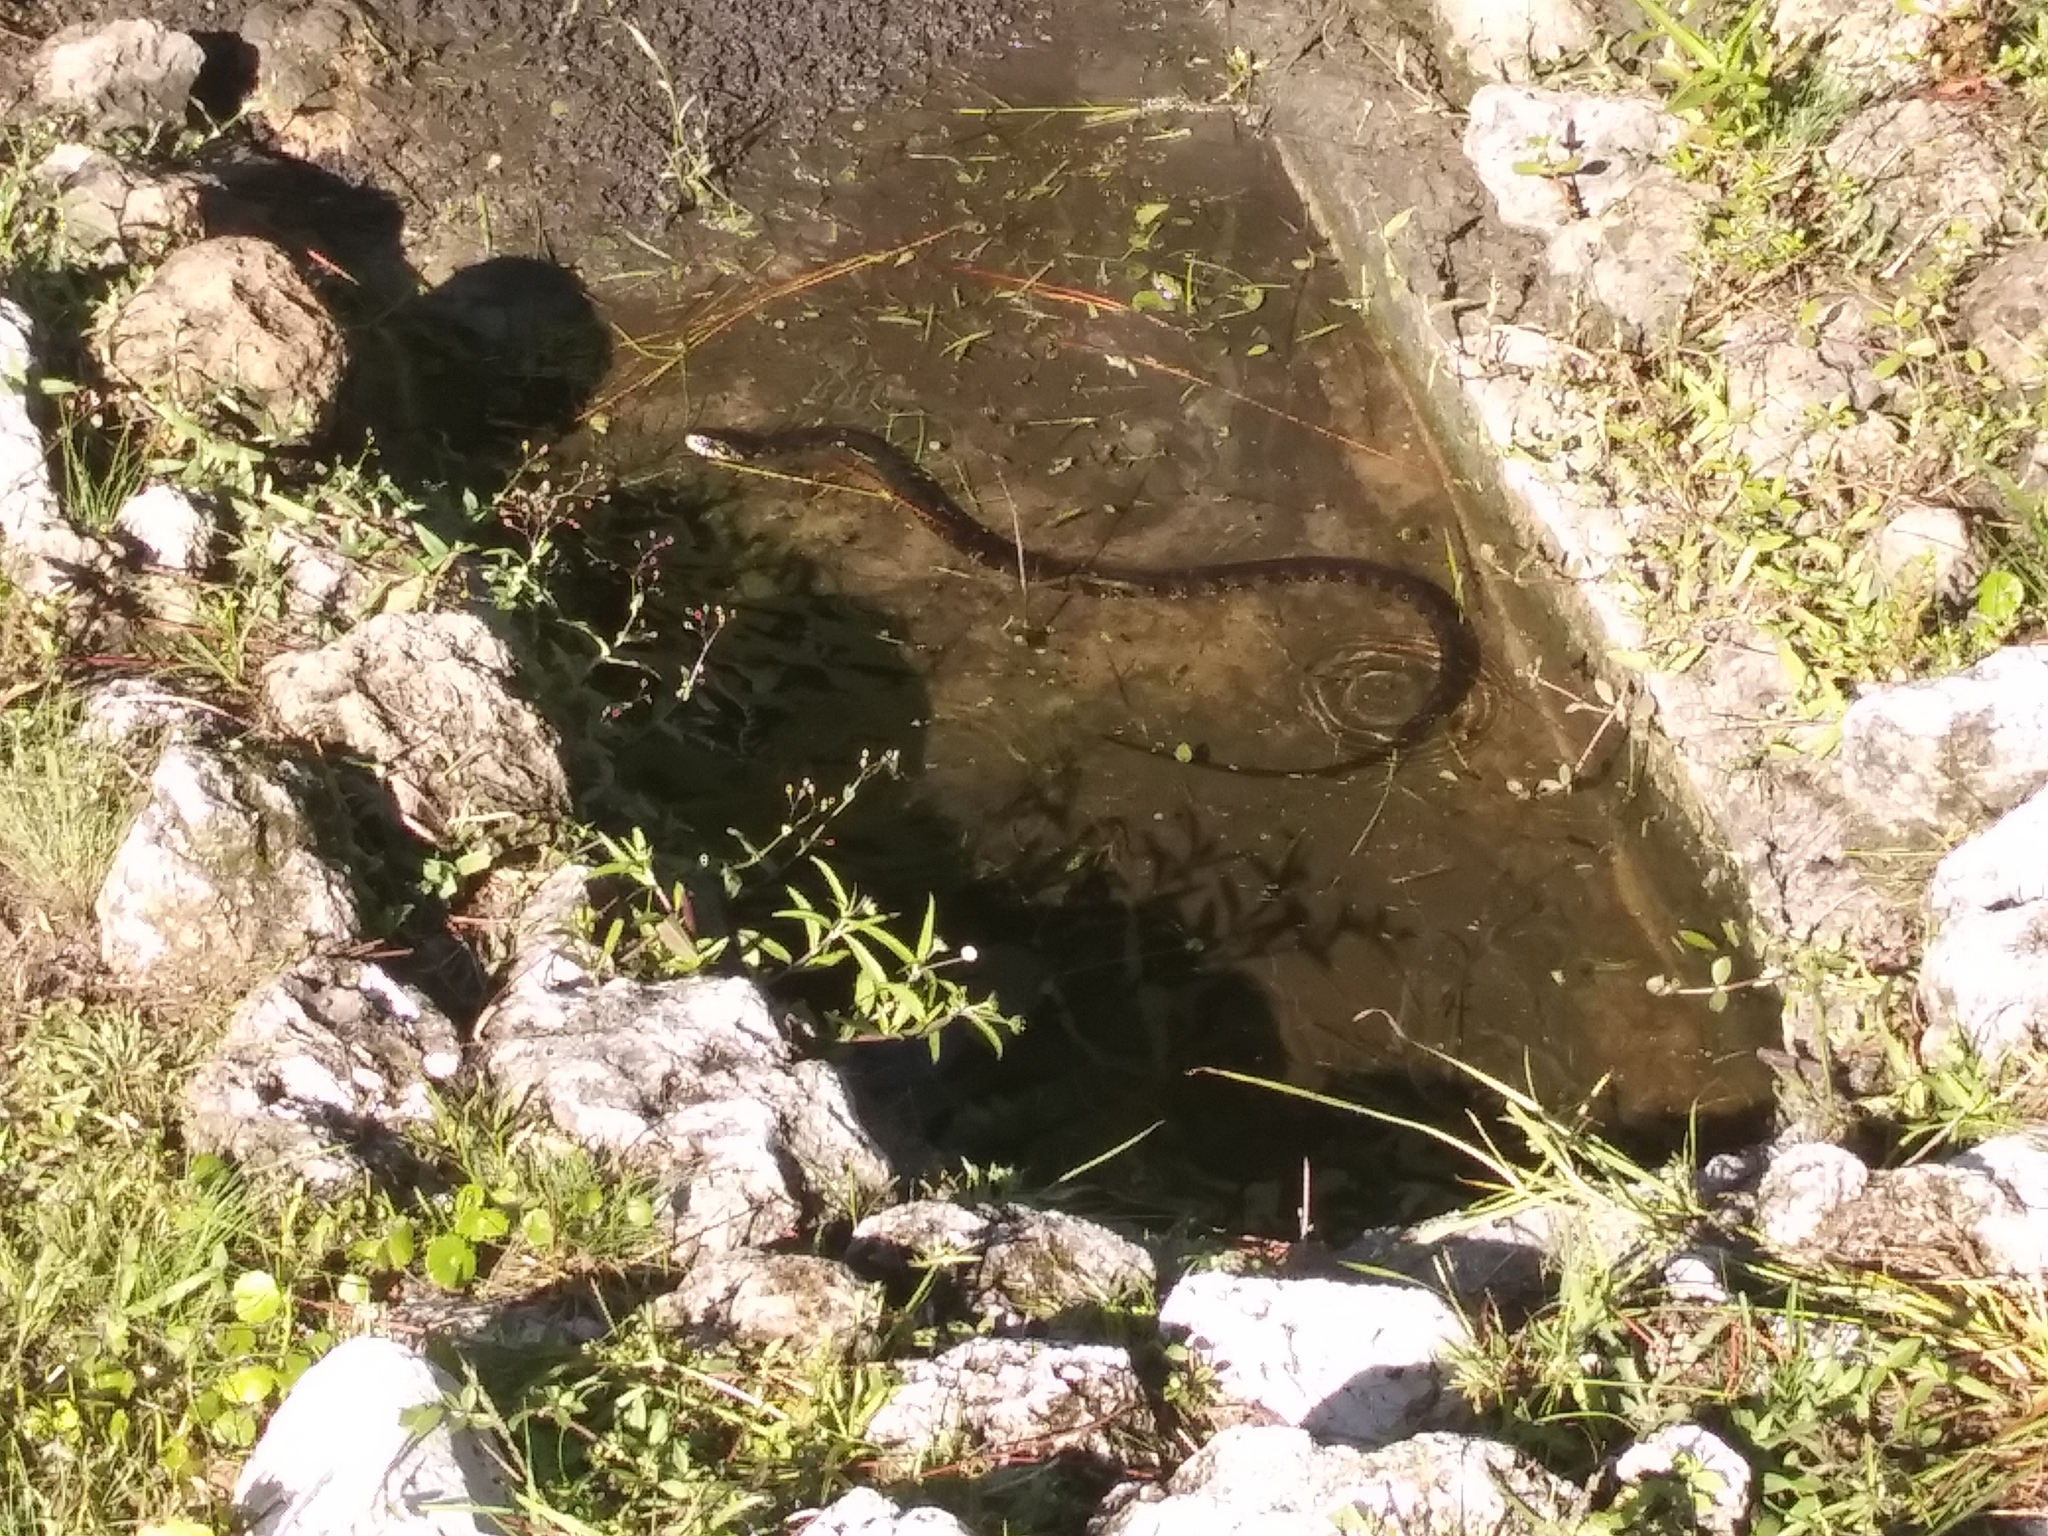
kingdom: Animalia
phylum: Chordata
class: Squamata
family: Colubridae
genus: Nerodia
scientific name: Nerodia fasciata
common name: Southern water snake
